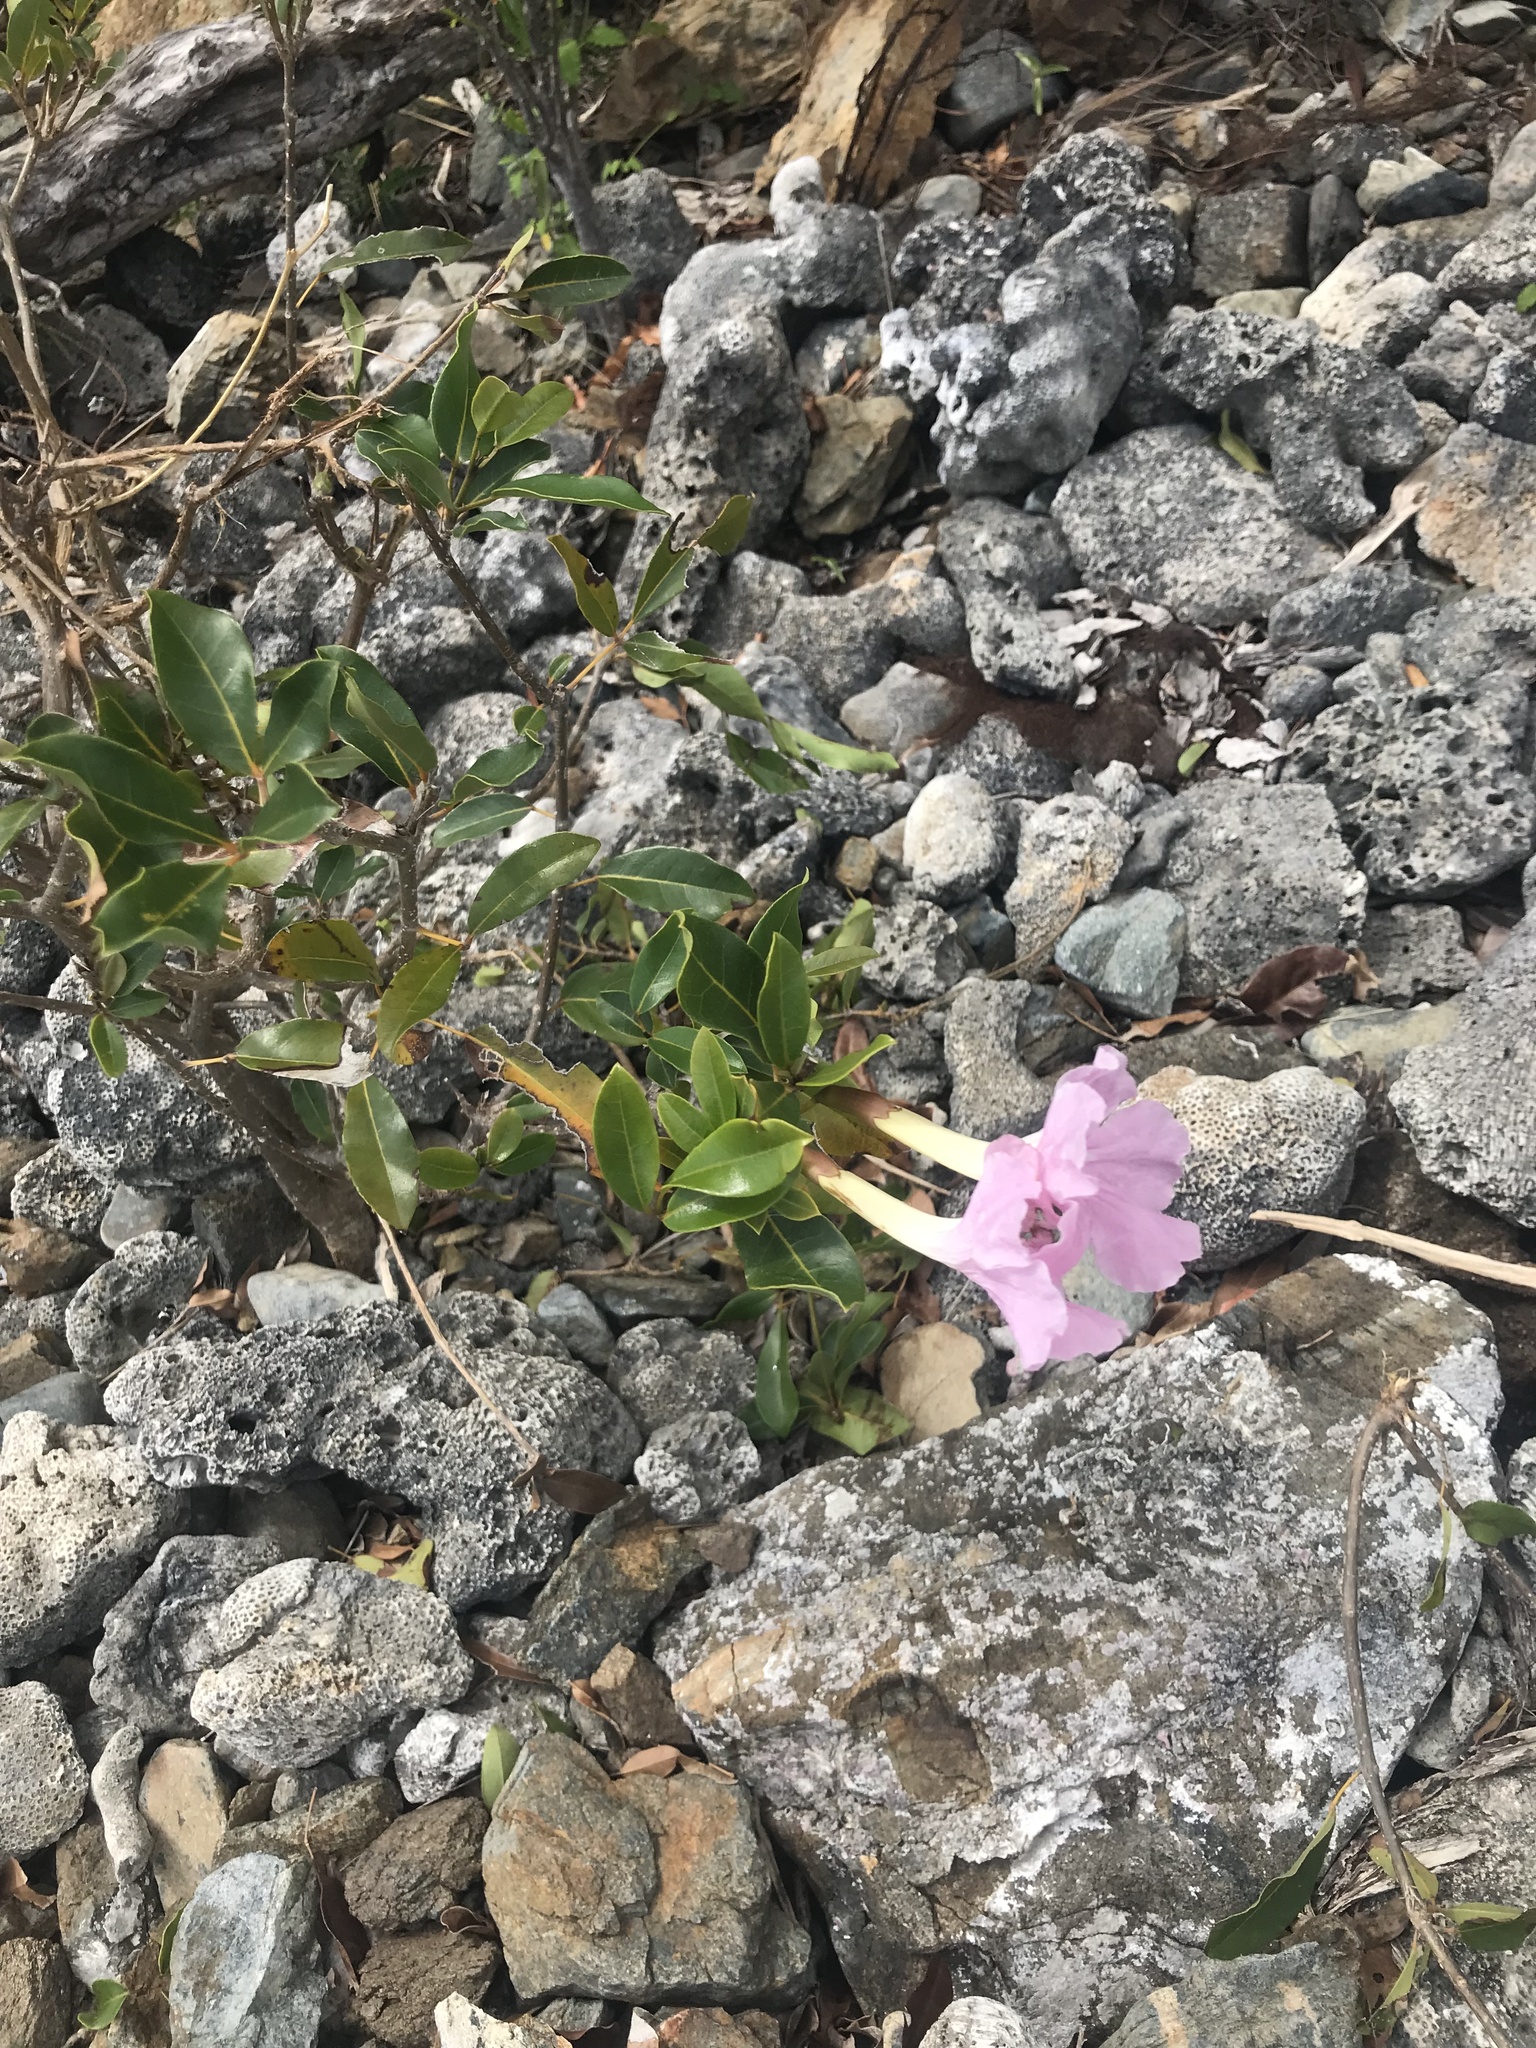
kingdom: Plantae
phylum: Tracheophyta
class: Magnoliopsida
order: Lamiales
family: Bignoniaceae
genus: Tabebuia
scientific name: Tabebuia heterophylla
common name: White cedar
